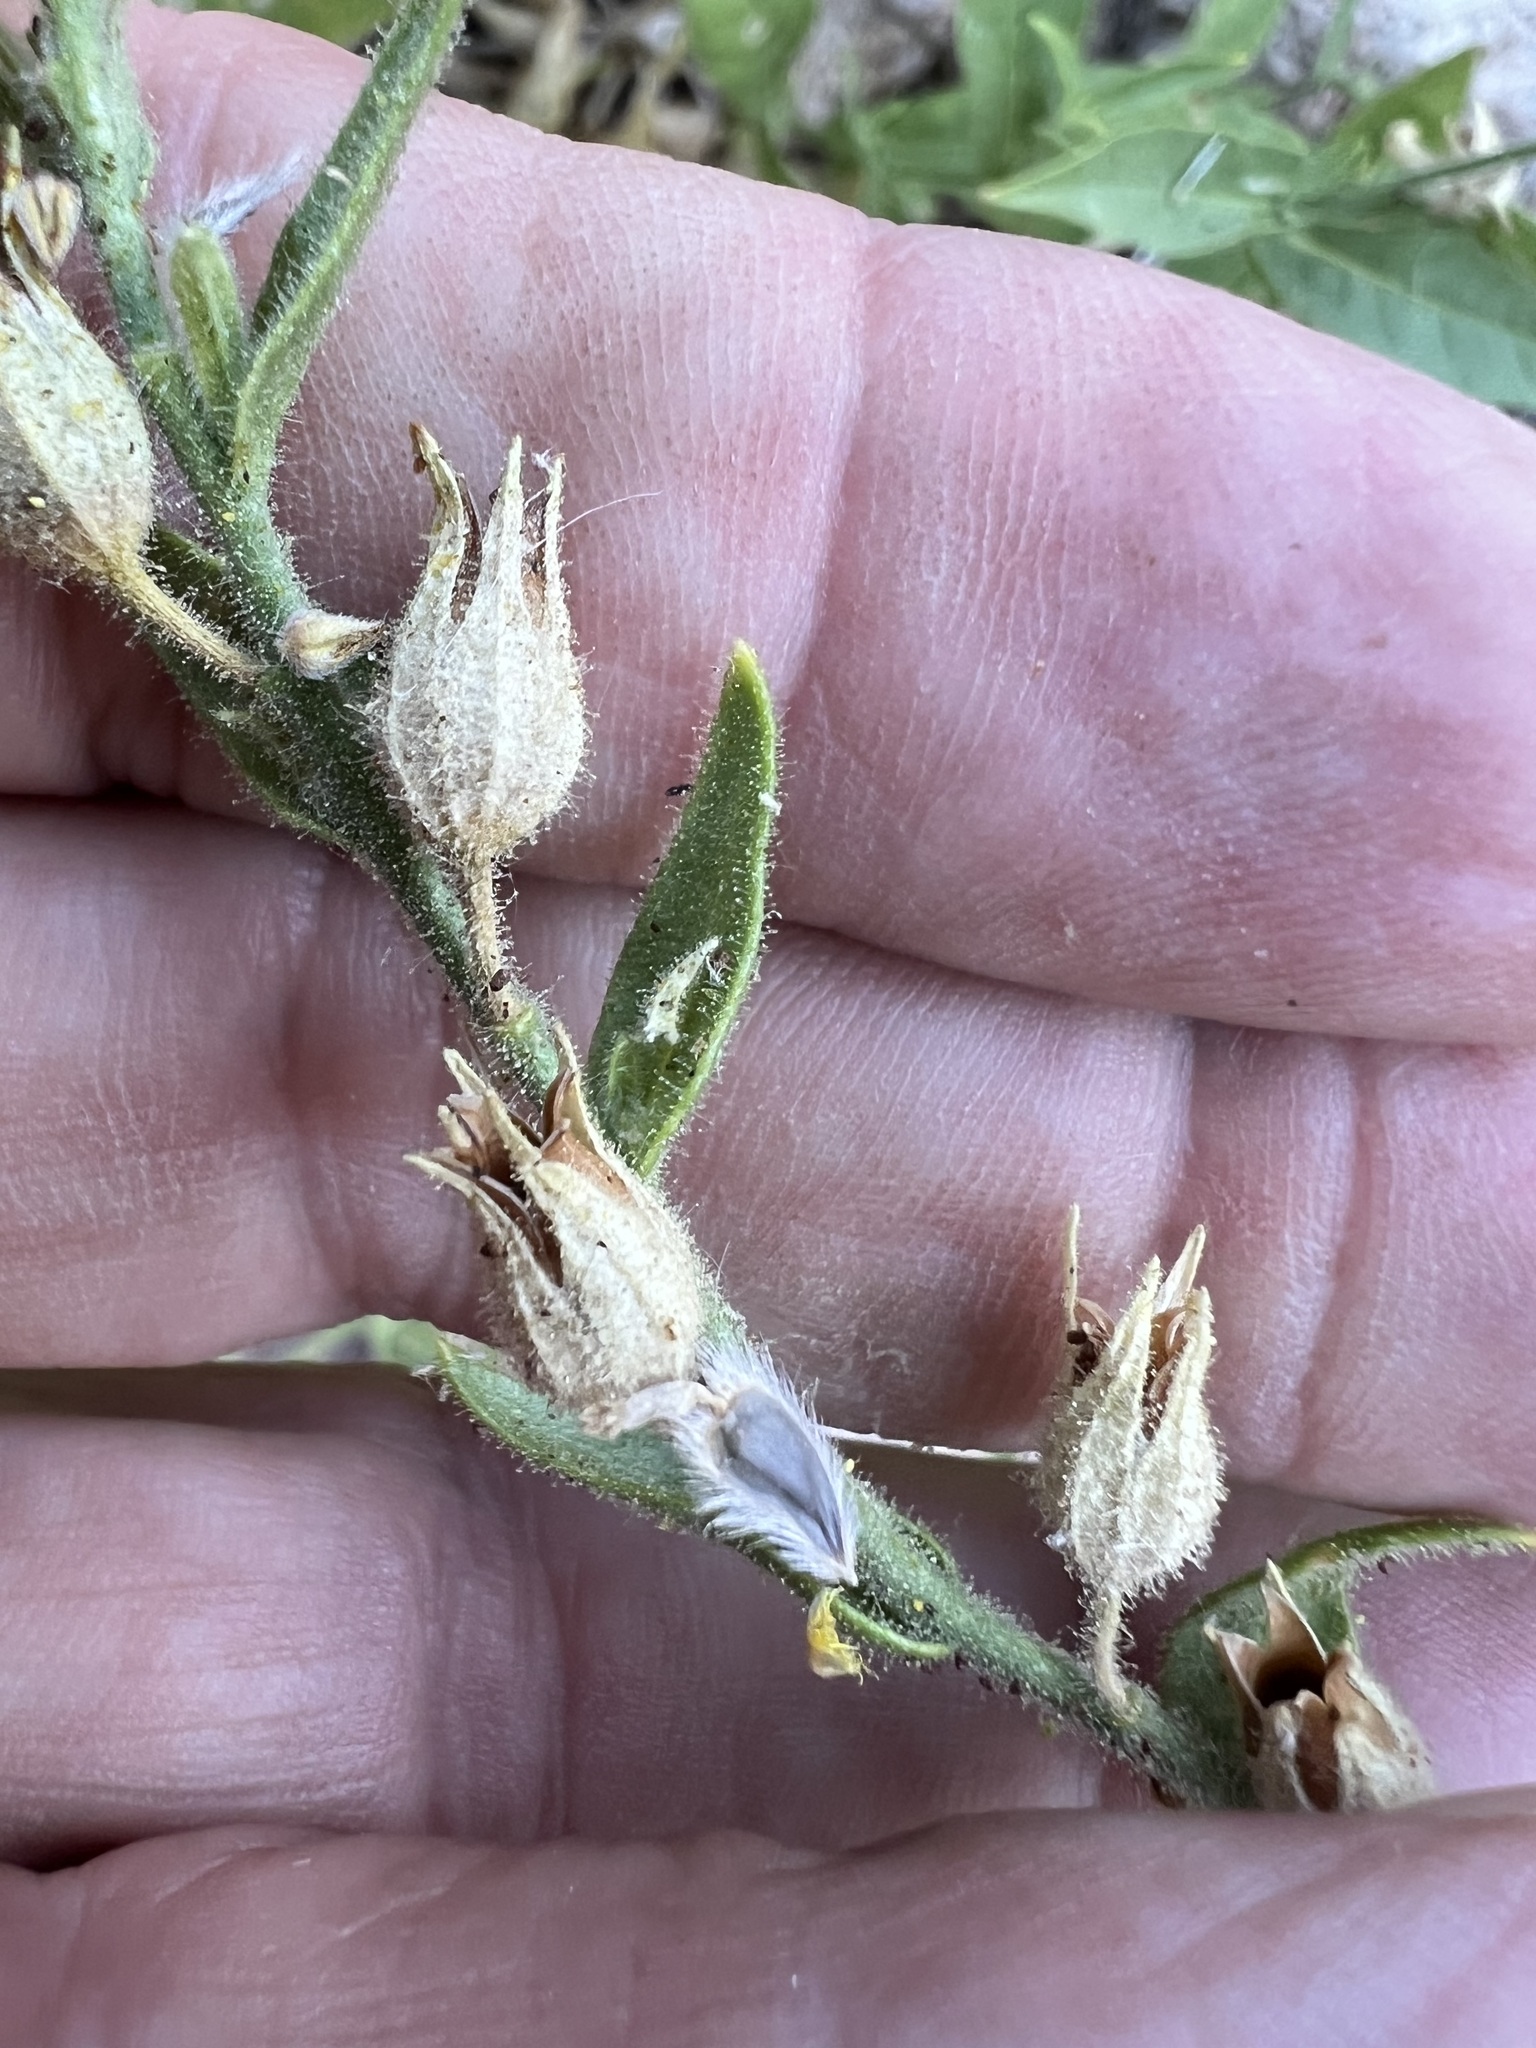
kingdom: Plantae
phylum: Tracheophyta
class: Magnoliopsida
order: Solanales
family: Solanaceae
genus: Nicotiana
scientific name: Nicotiana obtusifolia
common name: Desert tobacco
